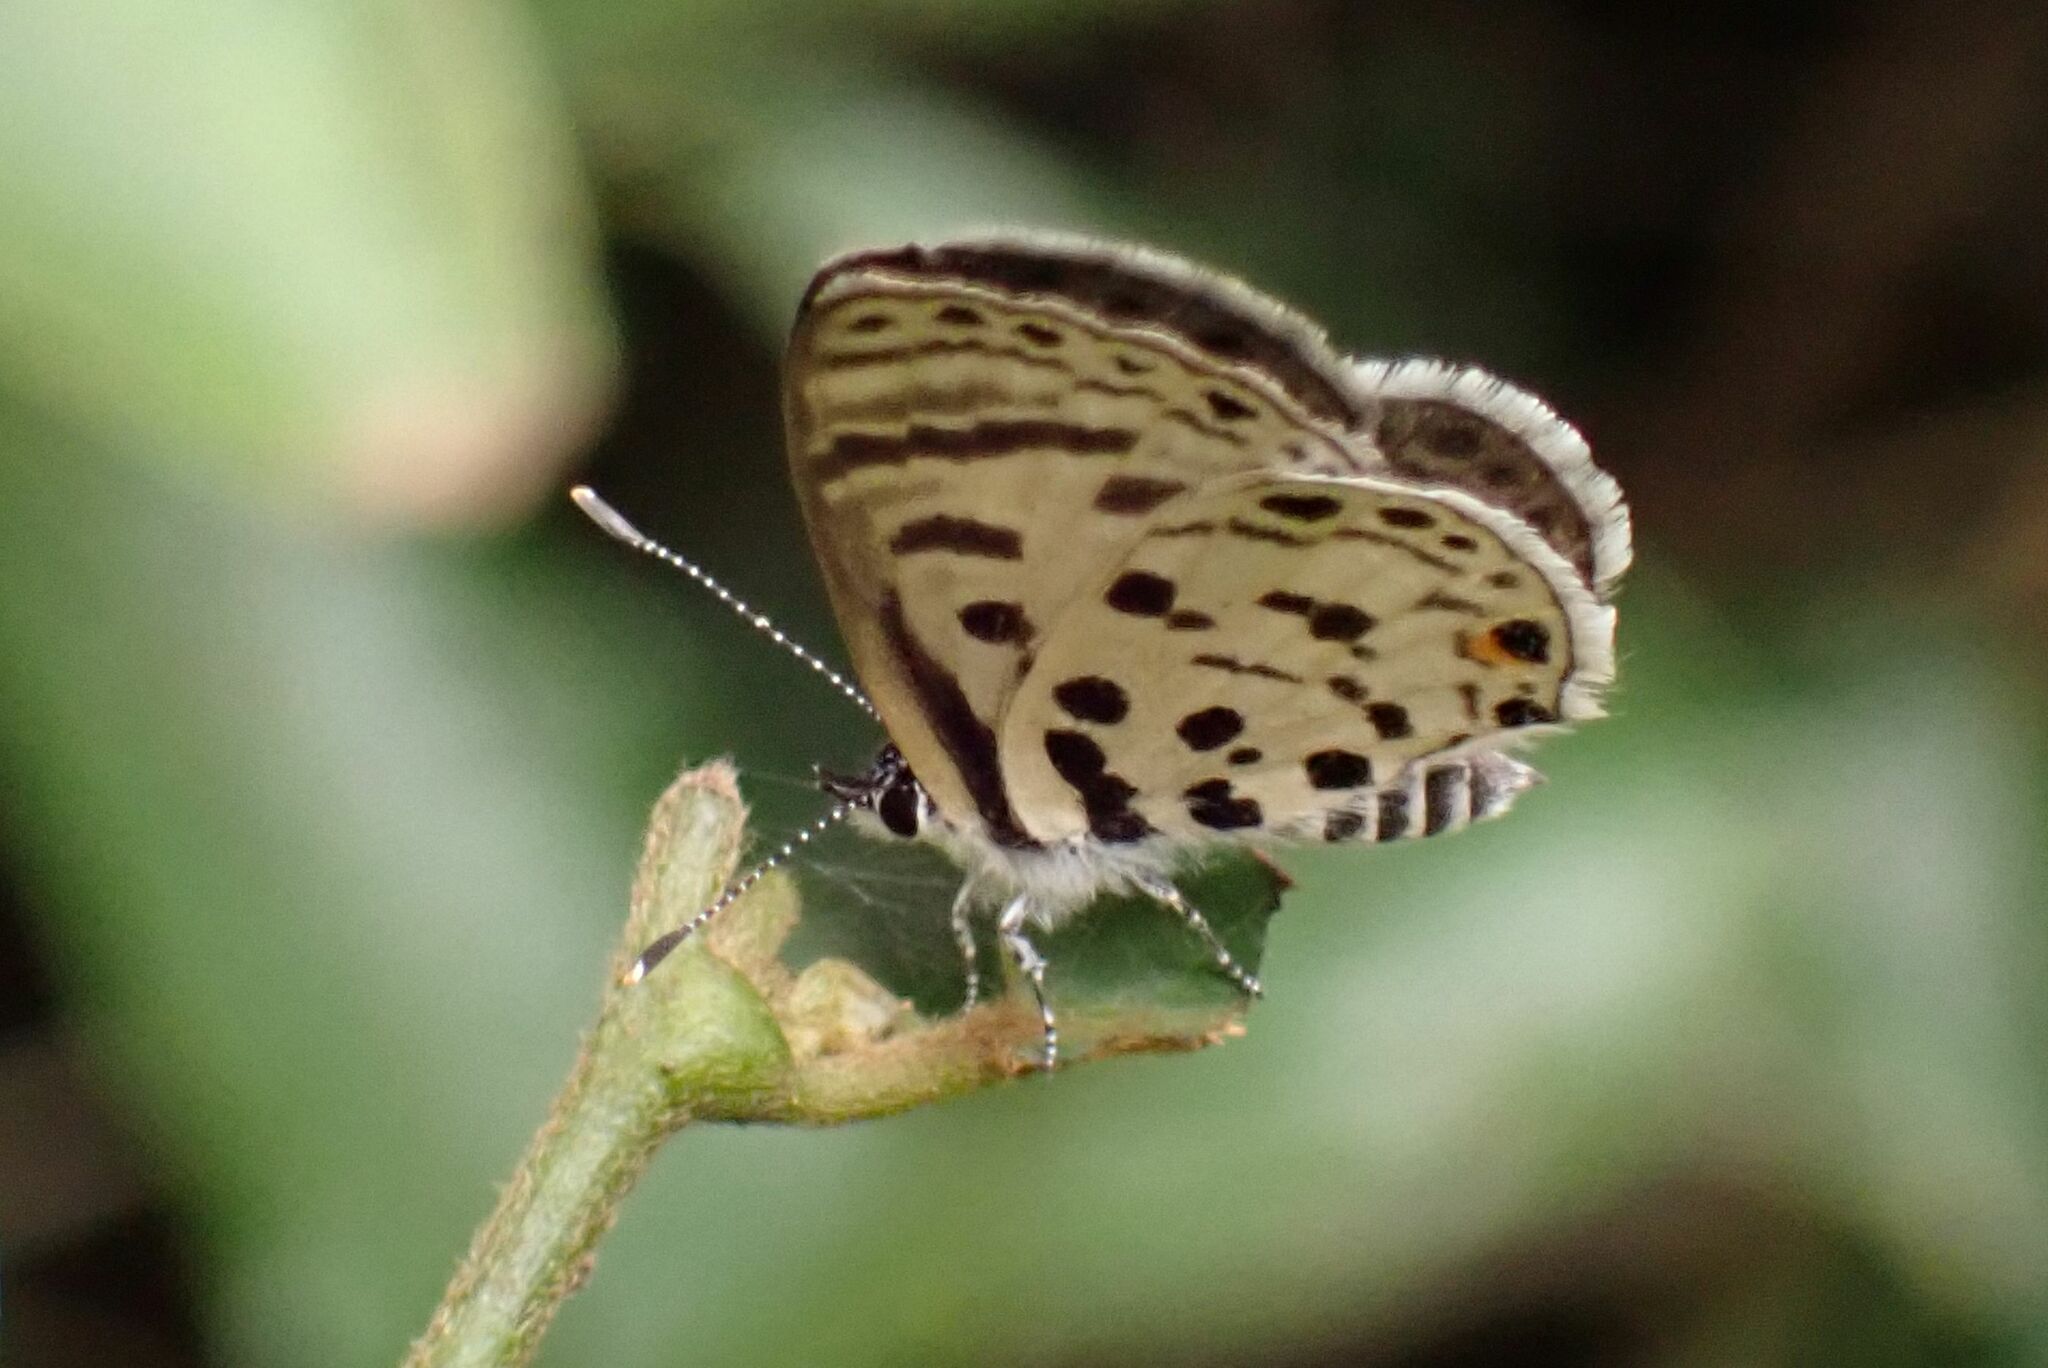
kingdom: Animalia
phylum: Arthropoda
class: Insecta
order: Lepidoptera
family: Lycaenidae
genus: Azanus
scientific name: Azanus mirza
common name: Mirza babul blue
